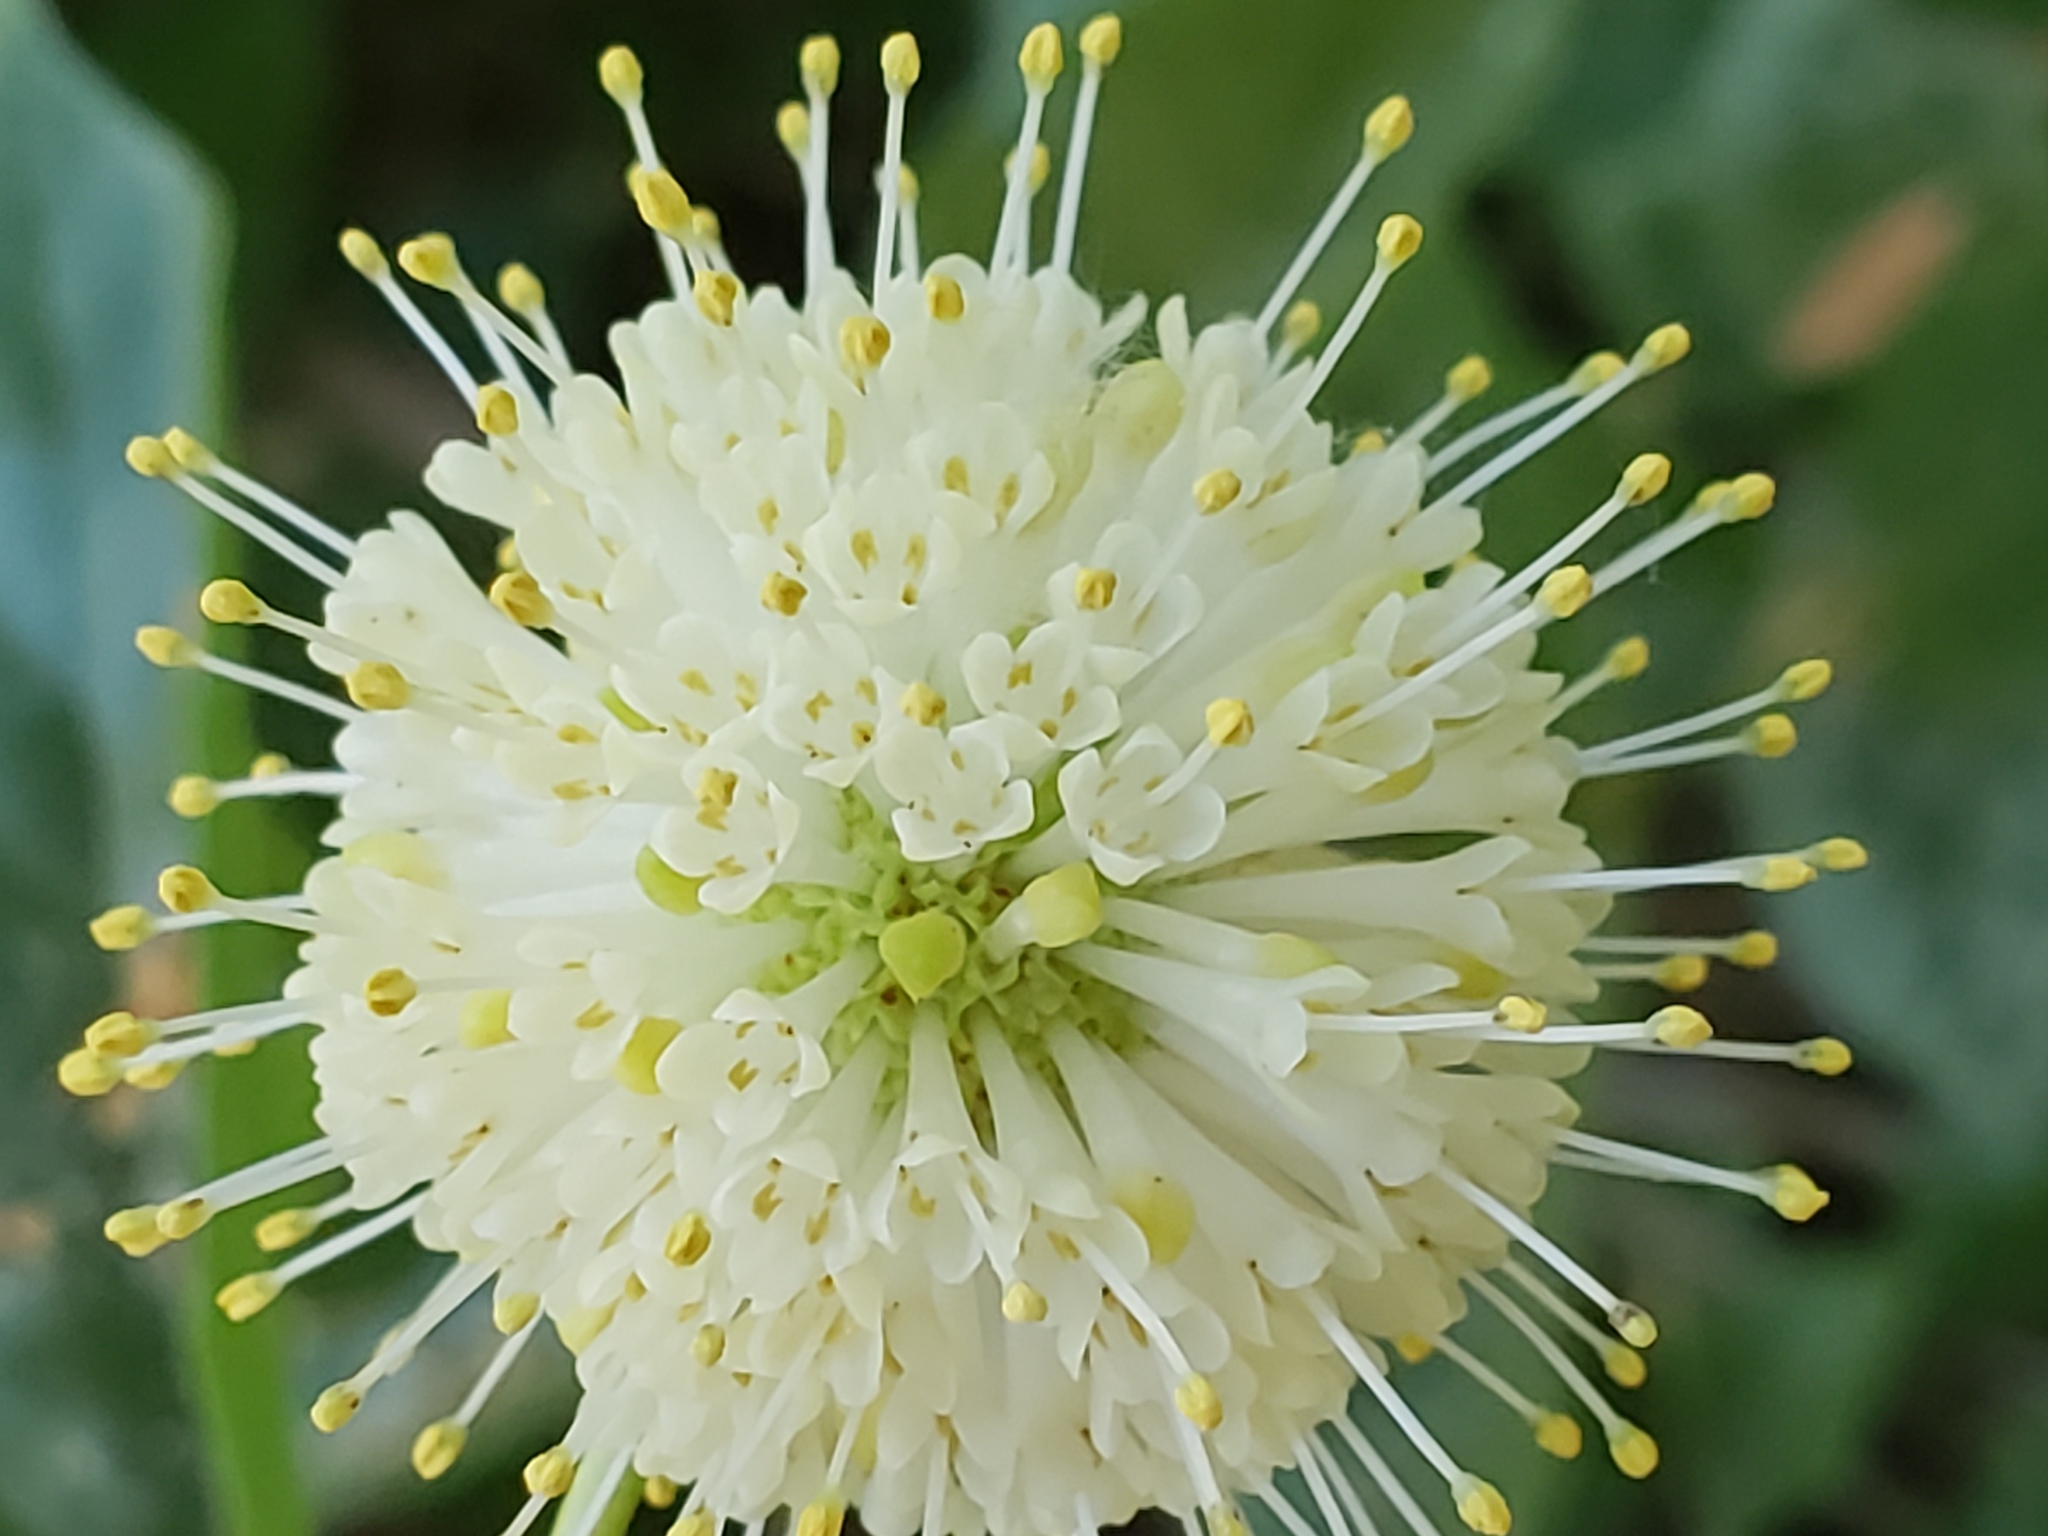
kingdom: Plantae
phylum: Tracheophyta
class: Magnoliopsida
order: Gentianales
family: Rubiaceae
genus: Cephalanthus
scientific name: Cephalanthus occidentalis
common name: Button-willow
